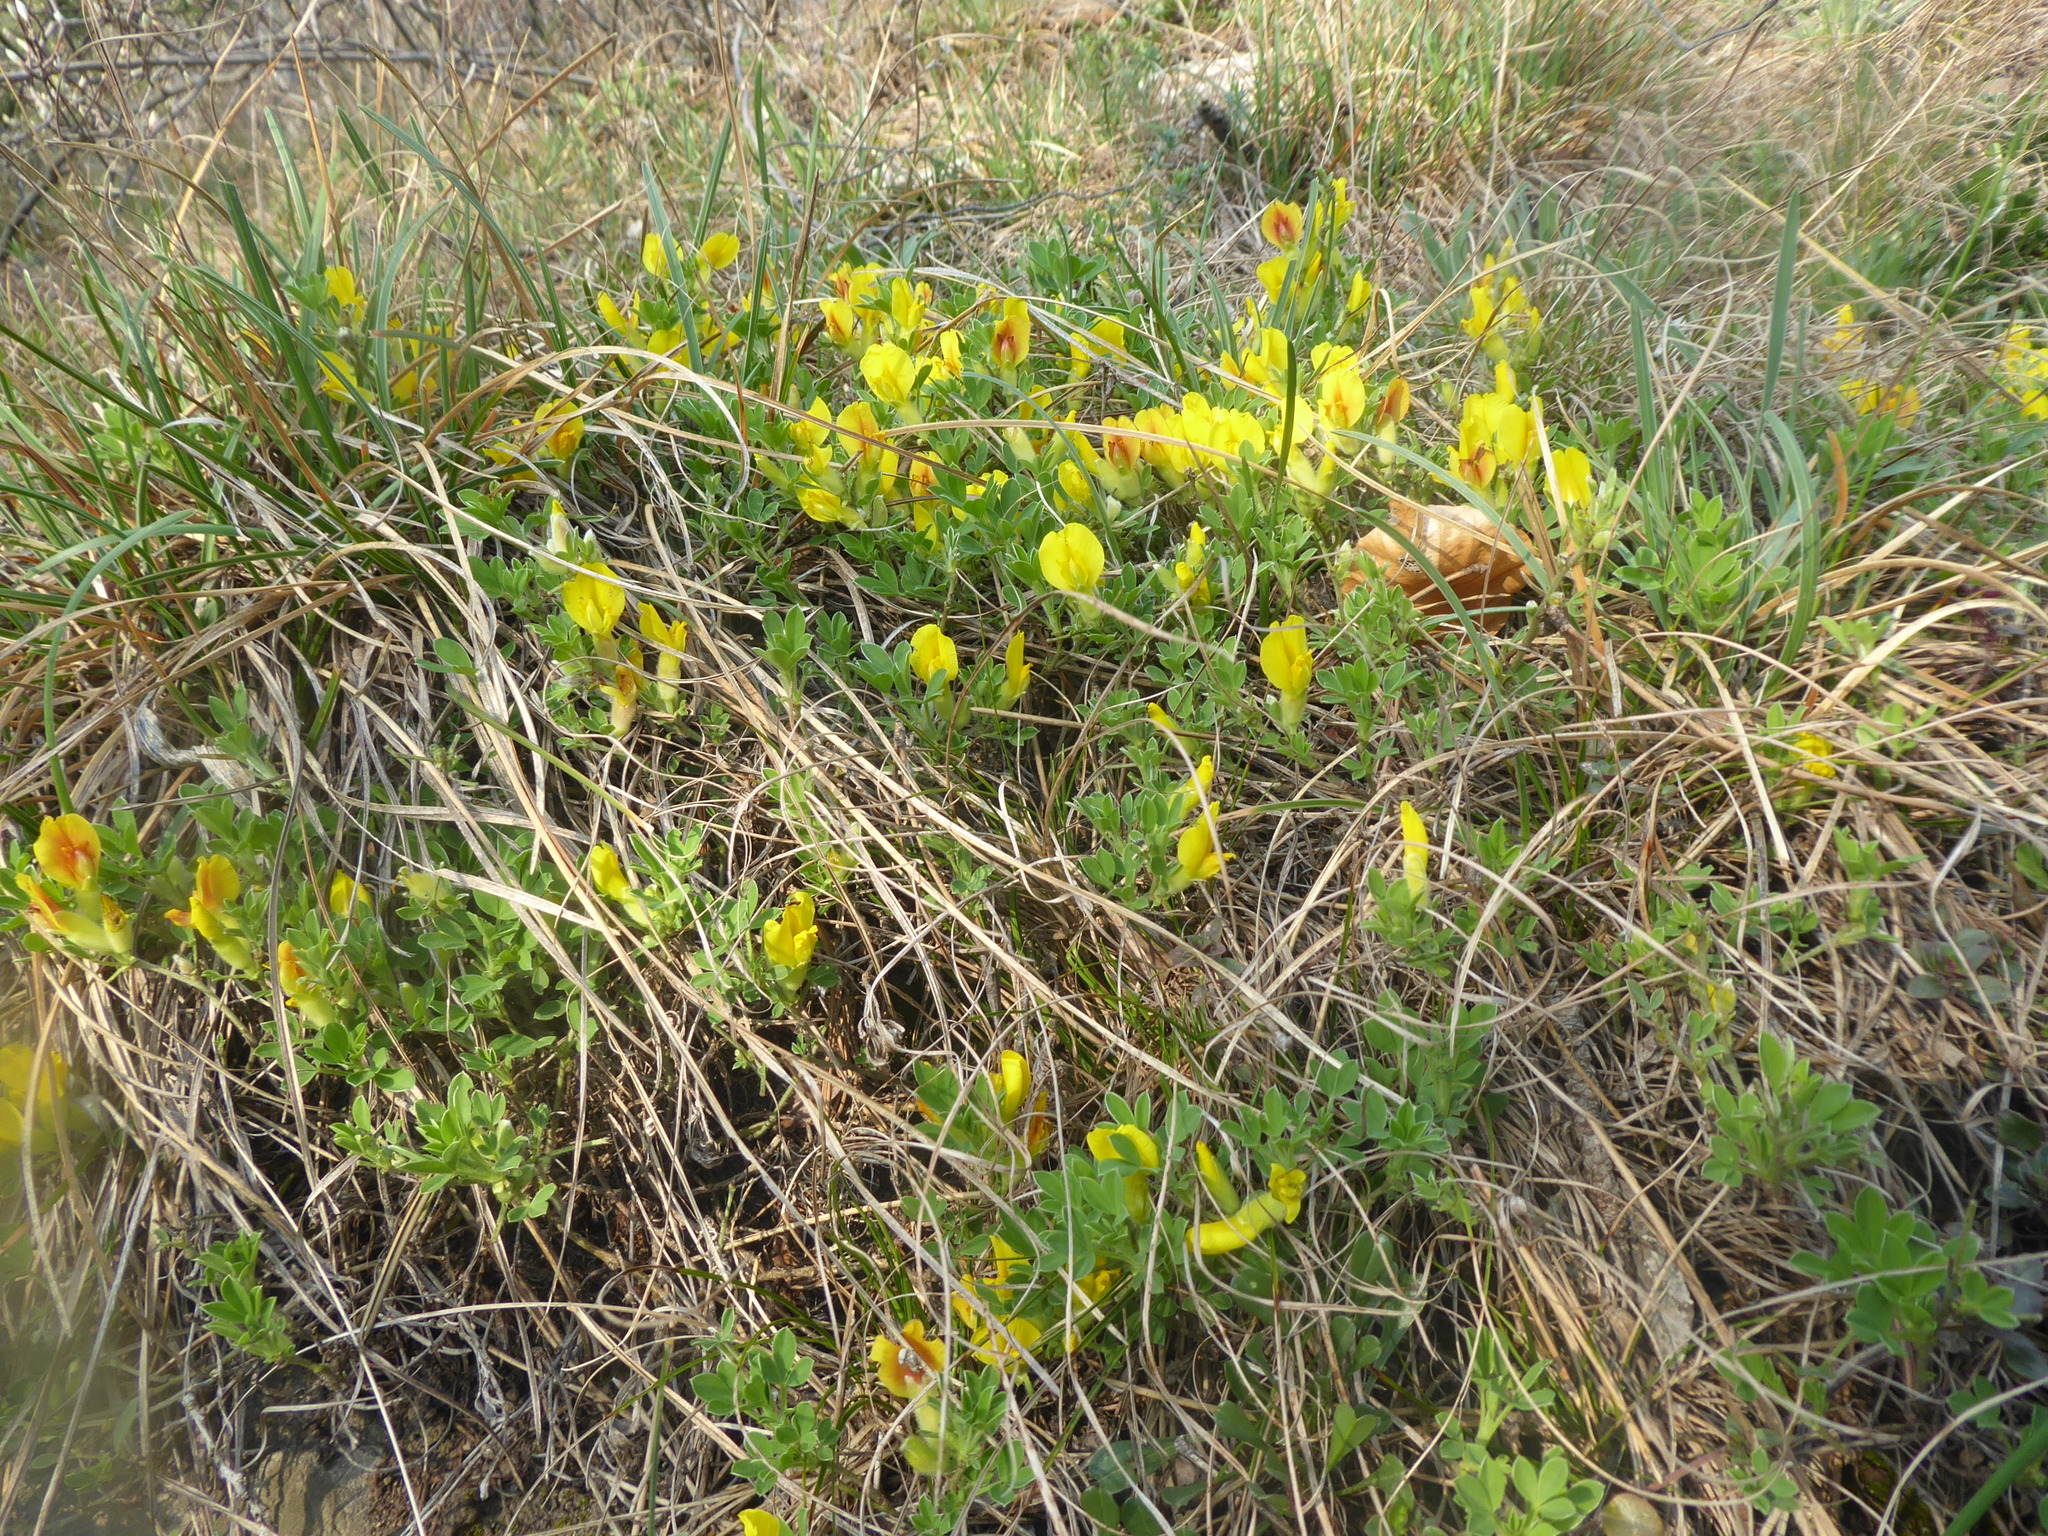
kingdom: Plantae
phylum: Tracheophyta
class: Magnoliopsida
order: Fabales
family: Fabaceae
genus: Chamaecytisus
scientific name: Chamaecytisus ratisbonensis
